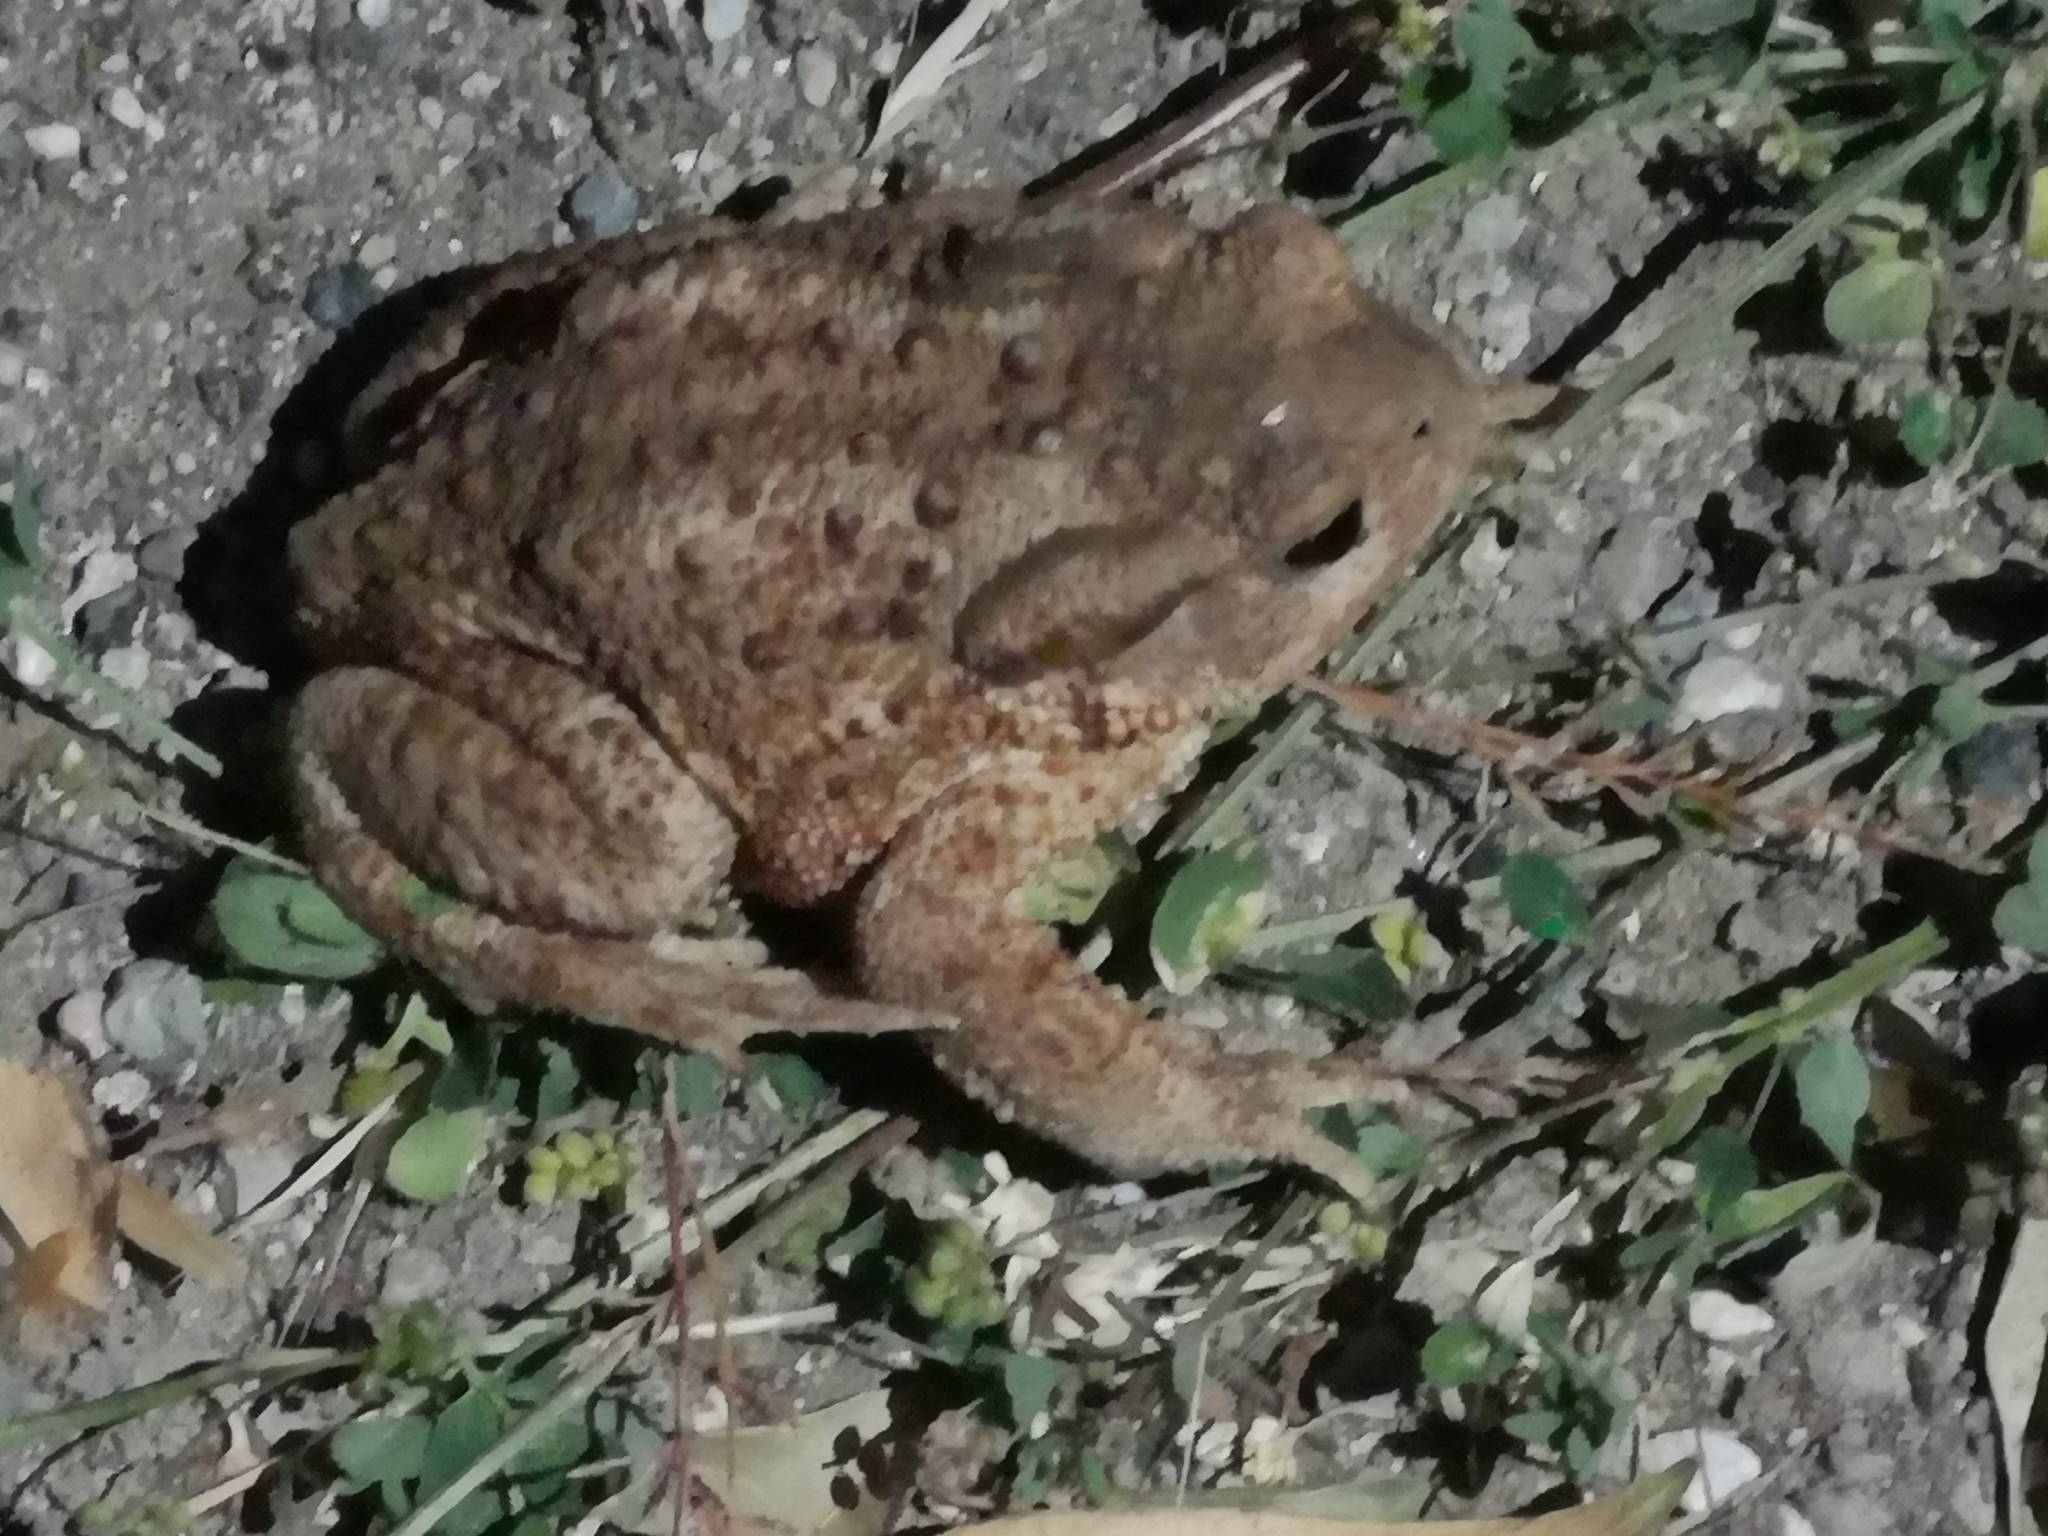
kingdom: Animalia
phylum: Chordata
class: Amphibia
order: Anura
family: Bufonidae
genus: Bufo
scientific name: Bufo bufo
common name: Common toad
